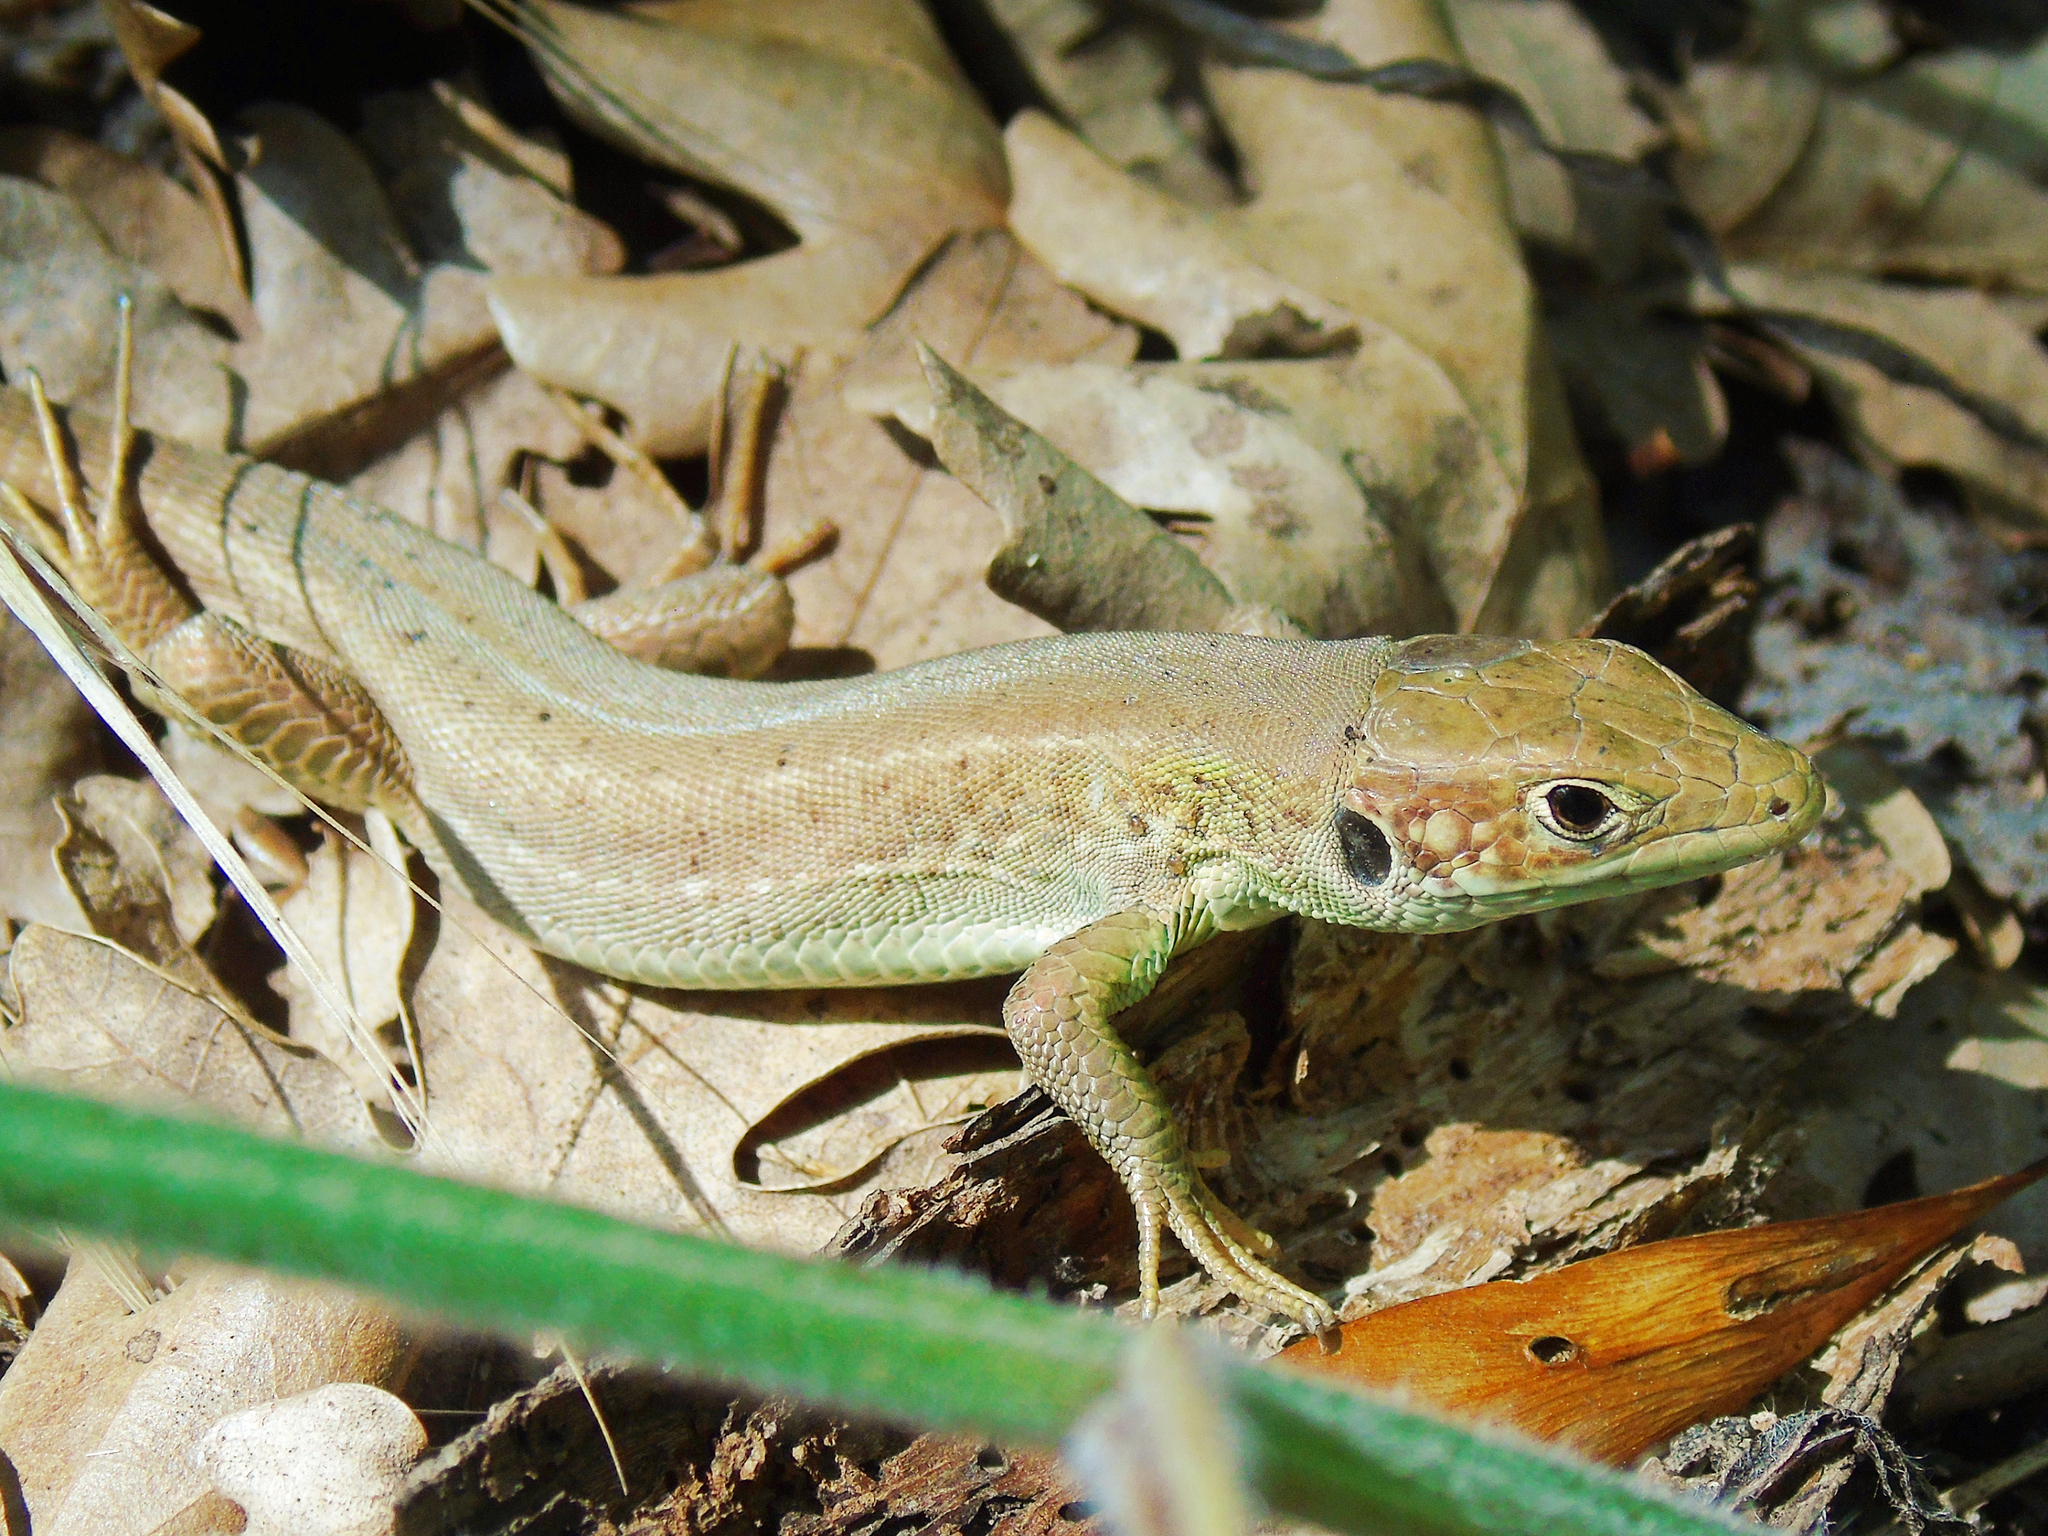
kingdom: Animalia
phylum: Chordata
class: Squamata
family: Lacertidae
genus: Lacerta
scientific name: Lacerta viridis
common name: European green lizard
